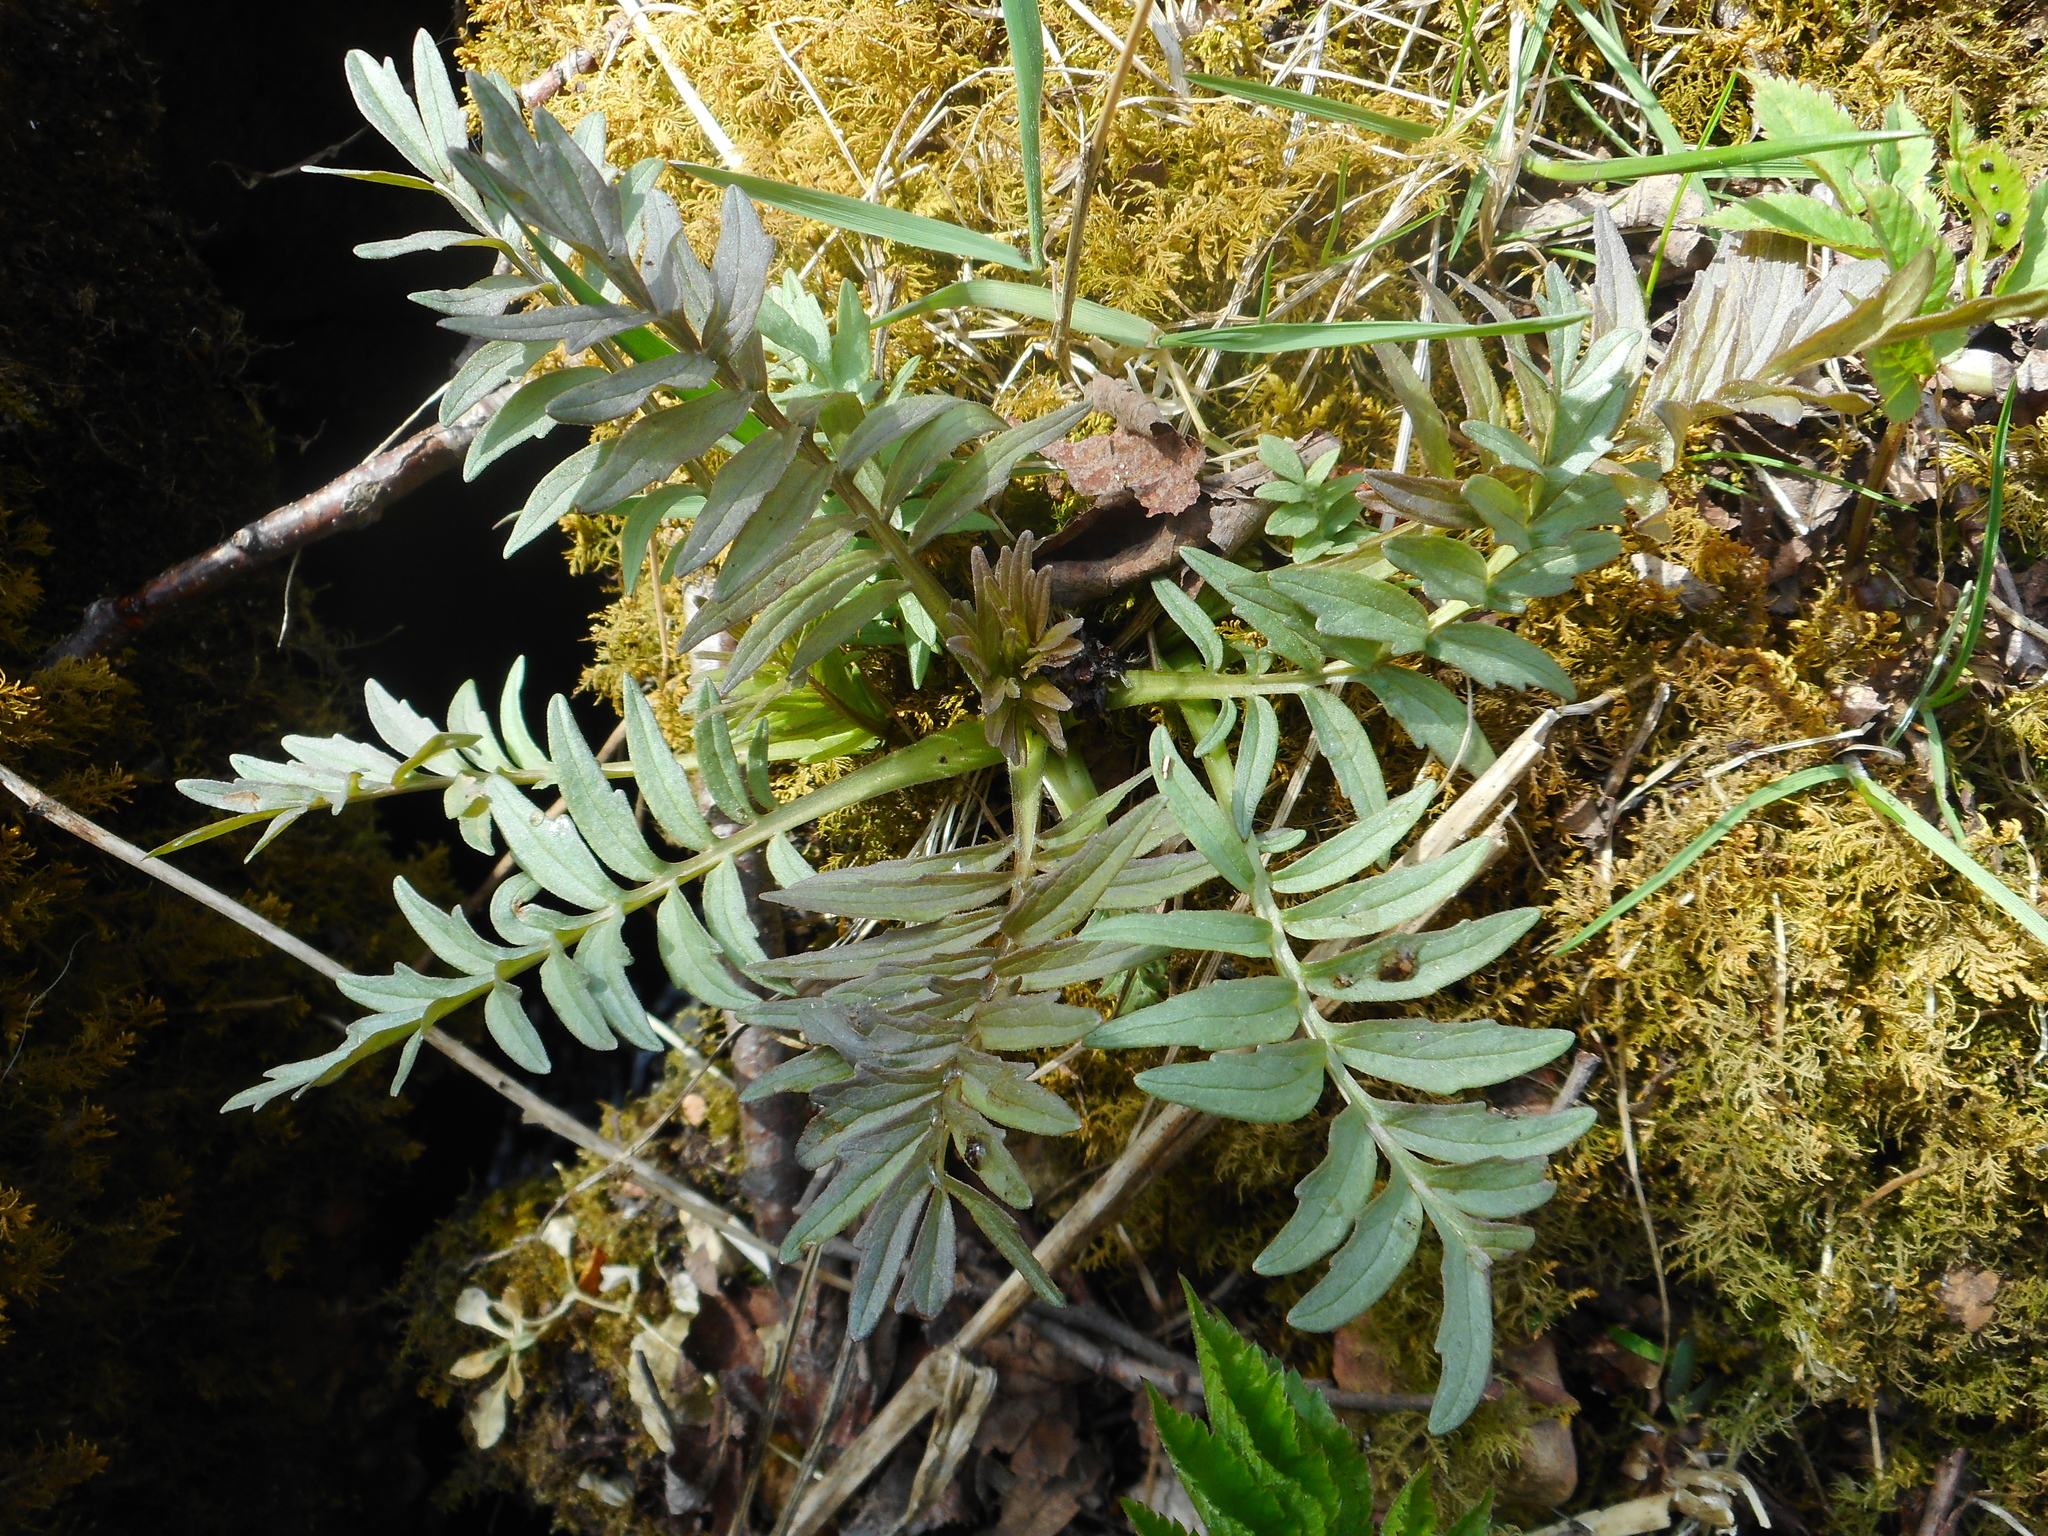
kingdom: Plantae
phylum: Tracheophyta
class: Magnoliopsida
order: Dipsacales
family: Caprifoliaceae
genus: Valeriana
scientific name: Valeriana officinalis
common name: Common valerian
